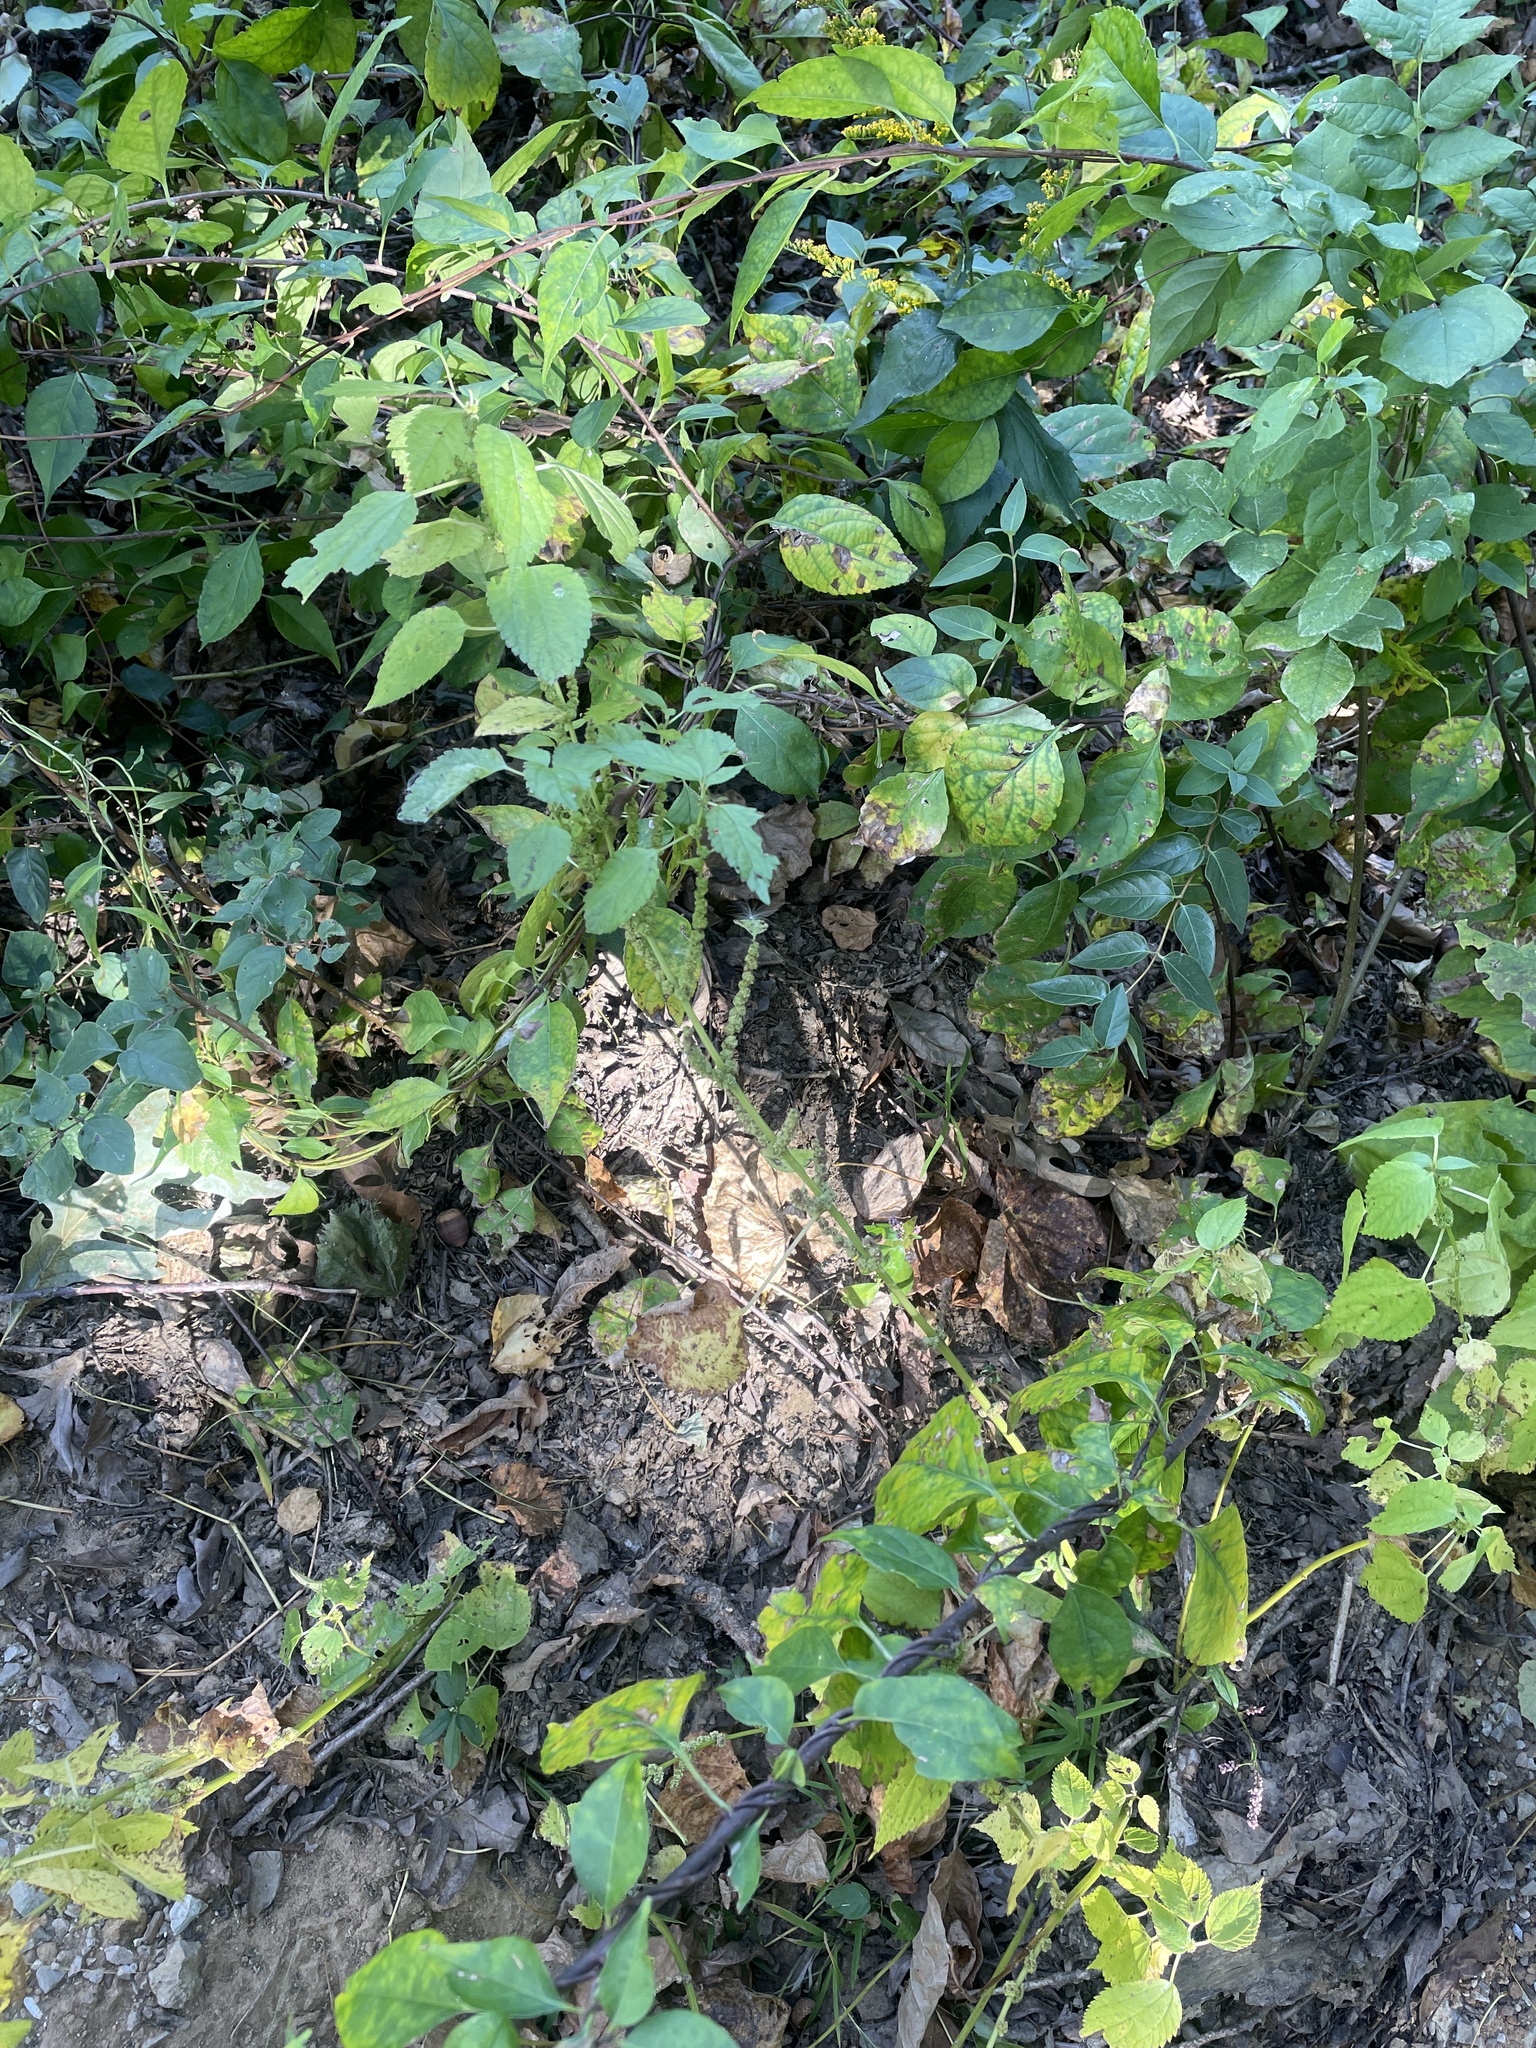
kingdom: Plantae
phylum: Tracheophyta
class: Magnoliopsida
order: Rosales
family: Urticaceae
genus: Boehmeria
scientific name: Boehmeria cylindrica
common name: Bog-hemp
